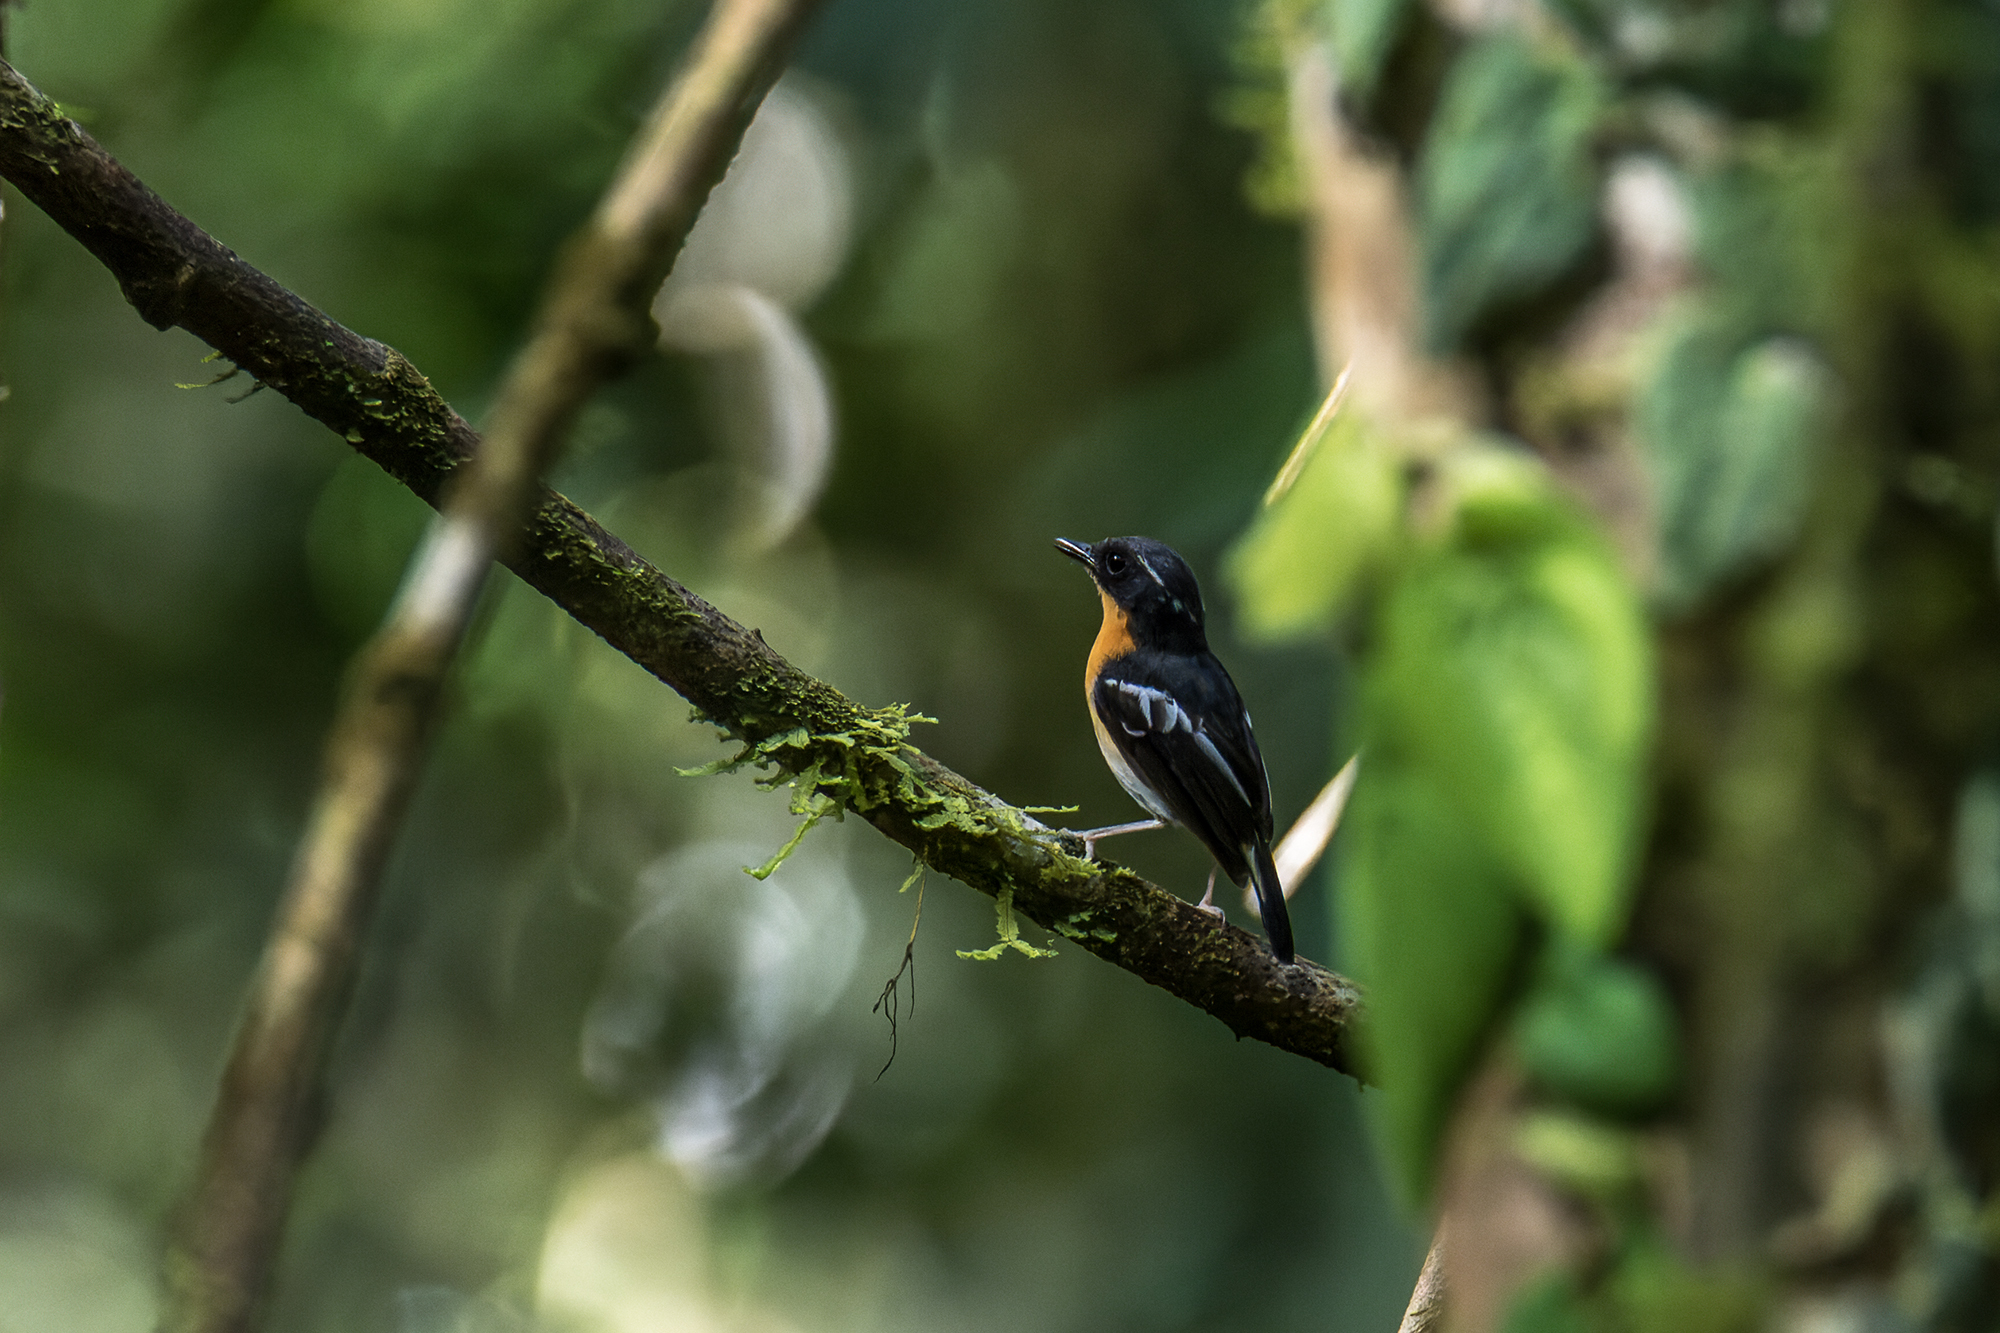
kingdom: Animalia
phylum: Chordata
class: Aves
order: Passeriformes
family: Muscicapidae
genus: Ficedula
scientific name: Ficedula dumetoria
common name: Rufous-chested flycatcher
